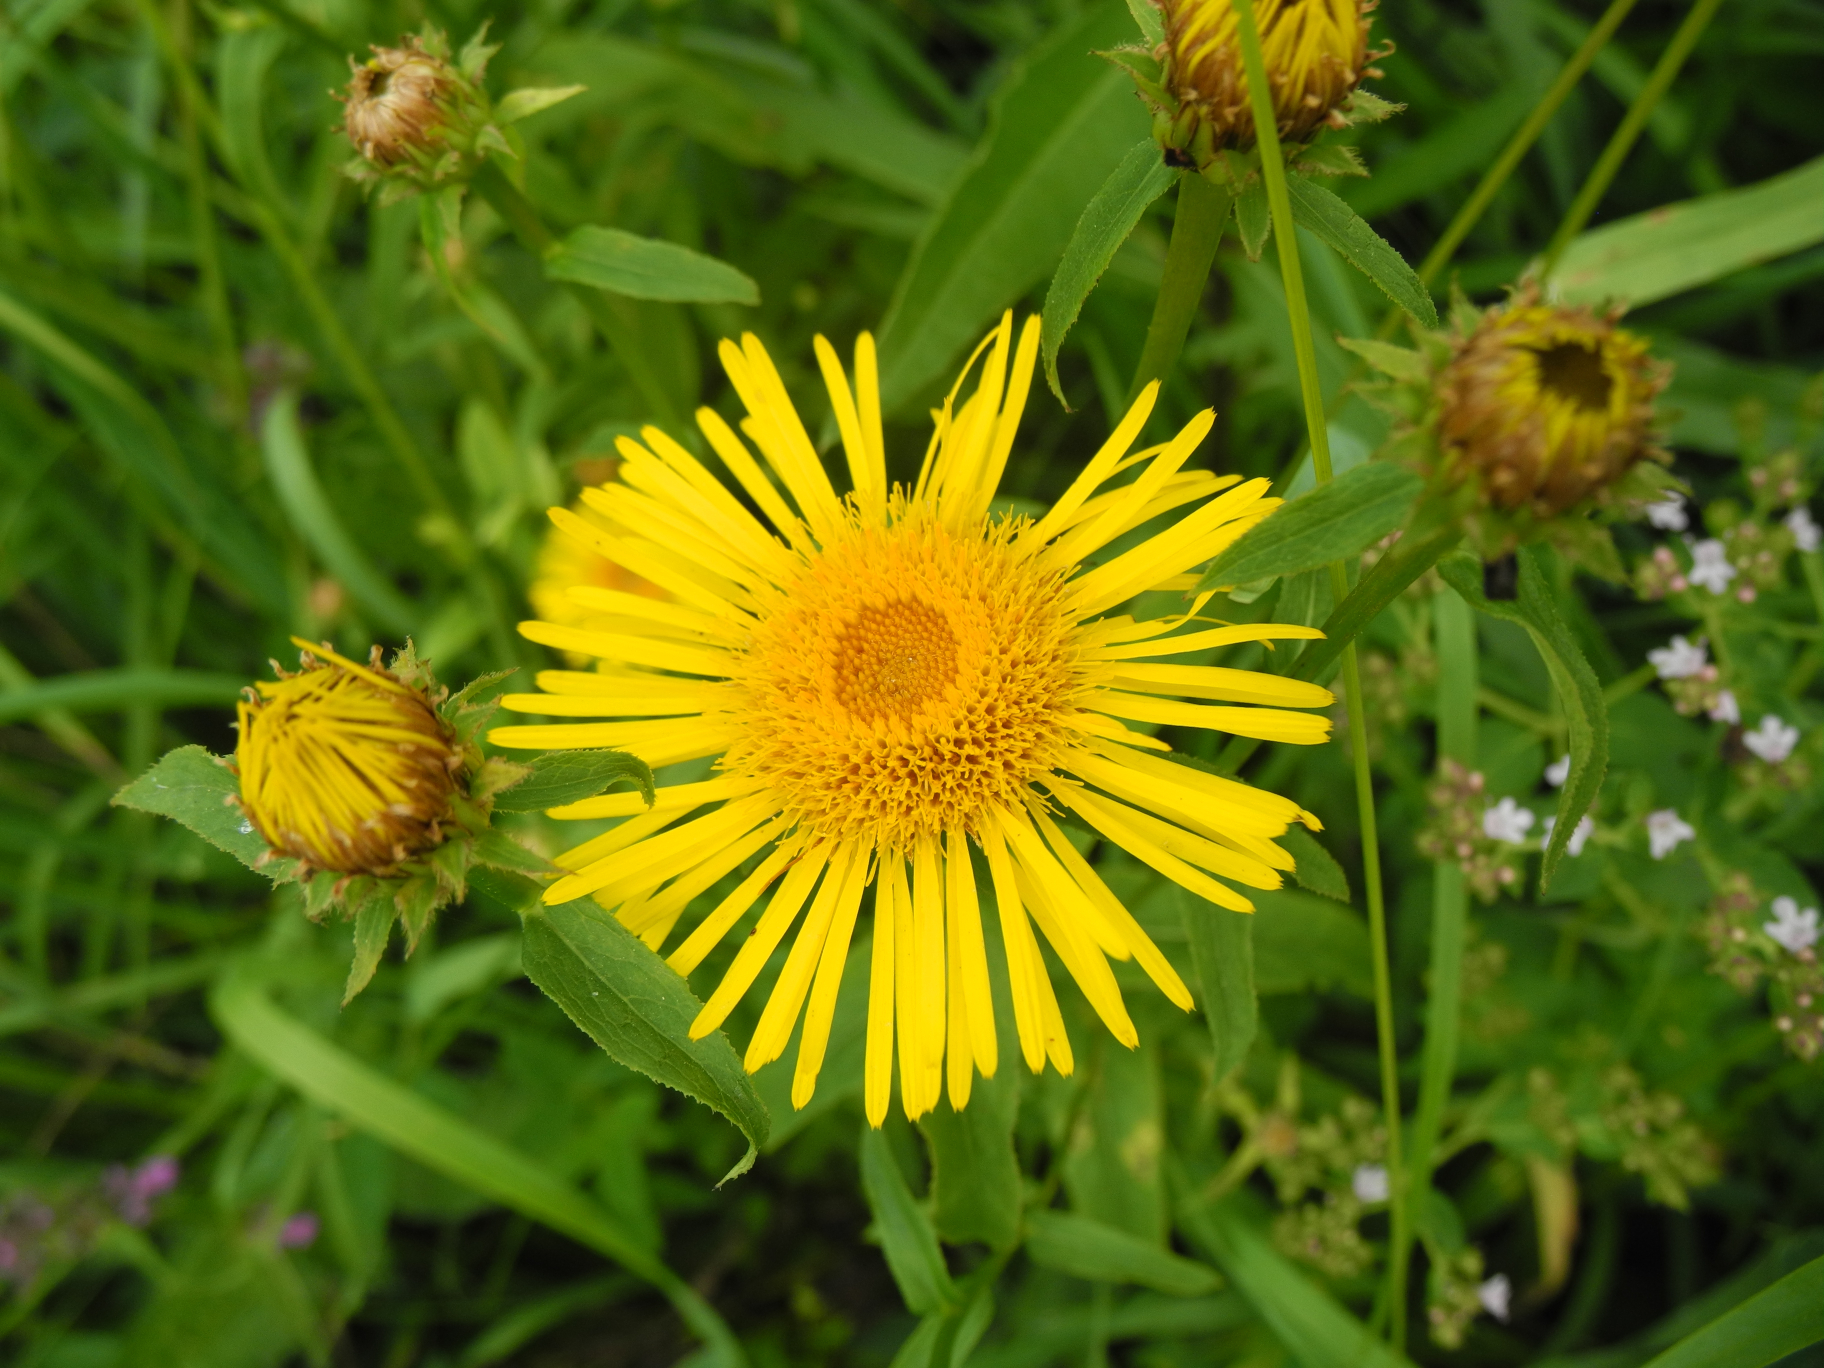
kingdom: Plantae
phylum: Tracheophyta
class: Magnoliopsida
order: Asterales
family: Asteraceae
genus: Pentanema
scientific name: Pentanema salicinum
